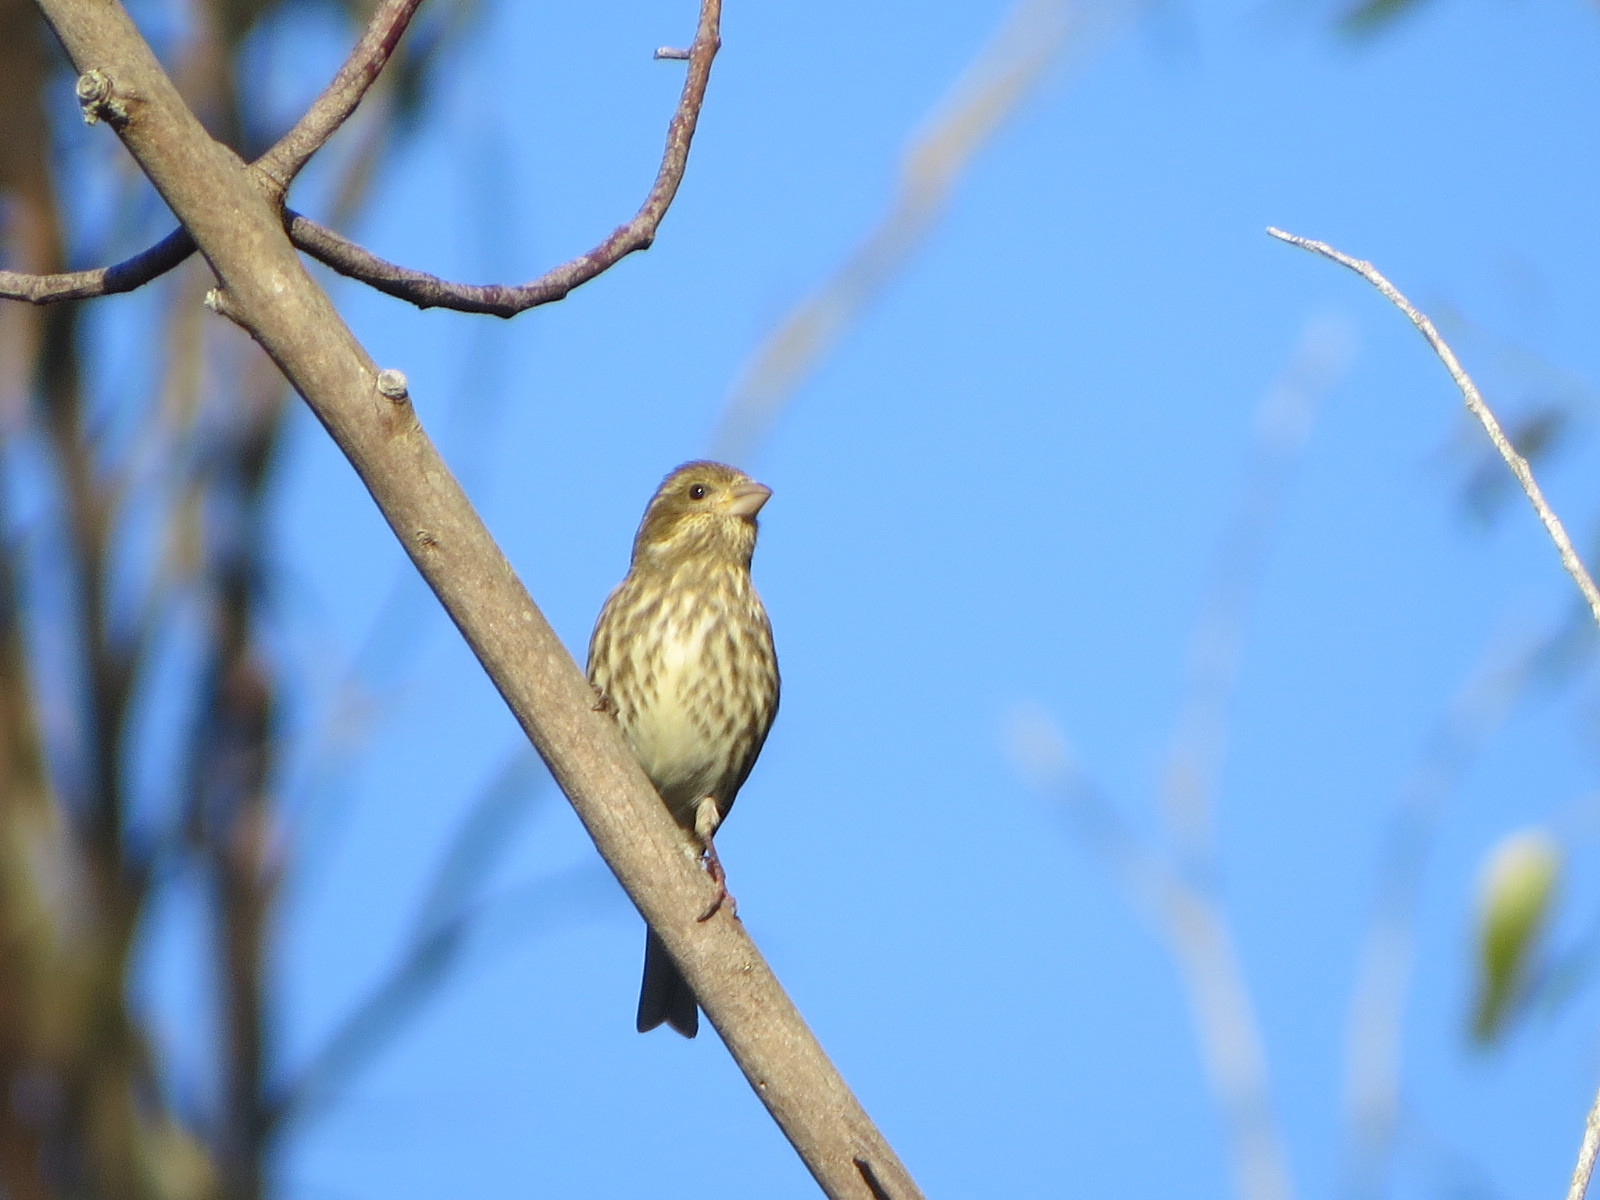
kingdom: Animalia
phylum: Chordata
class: Aves
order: Passeriformes
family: Fringillidae
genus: Haemorhous
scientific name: Haemorhous purpureus
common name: Purple finch
